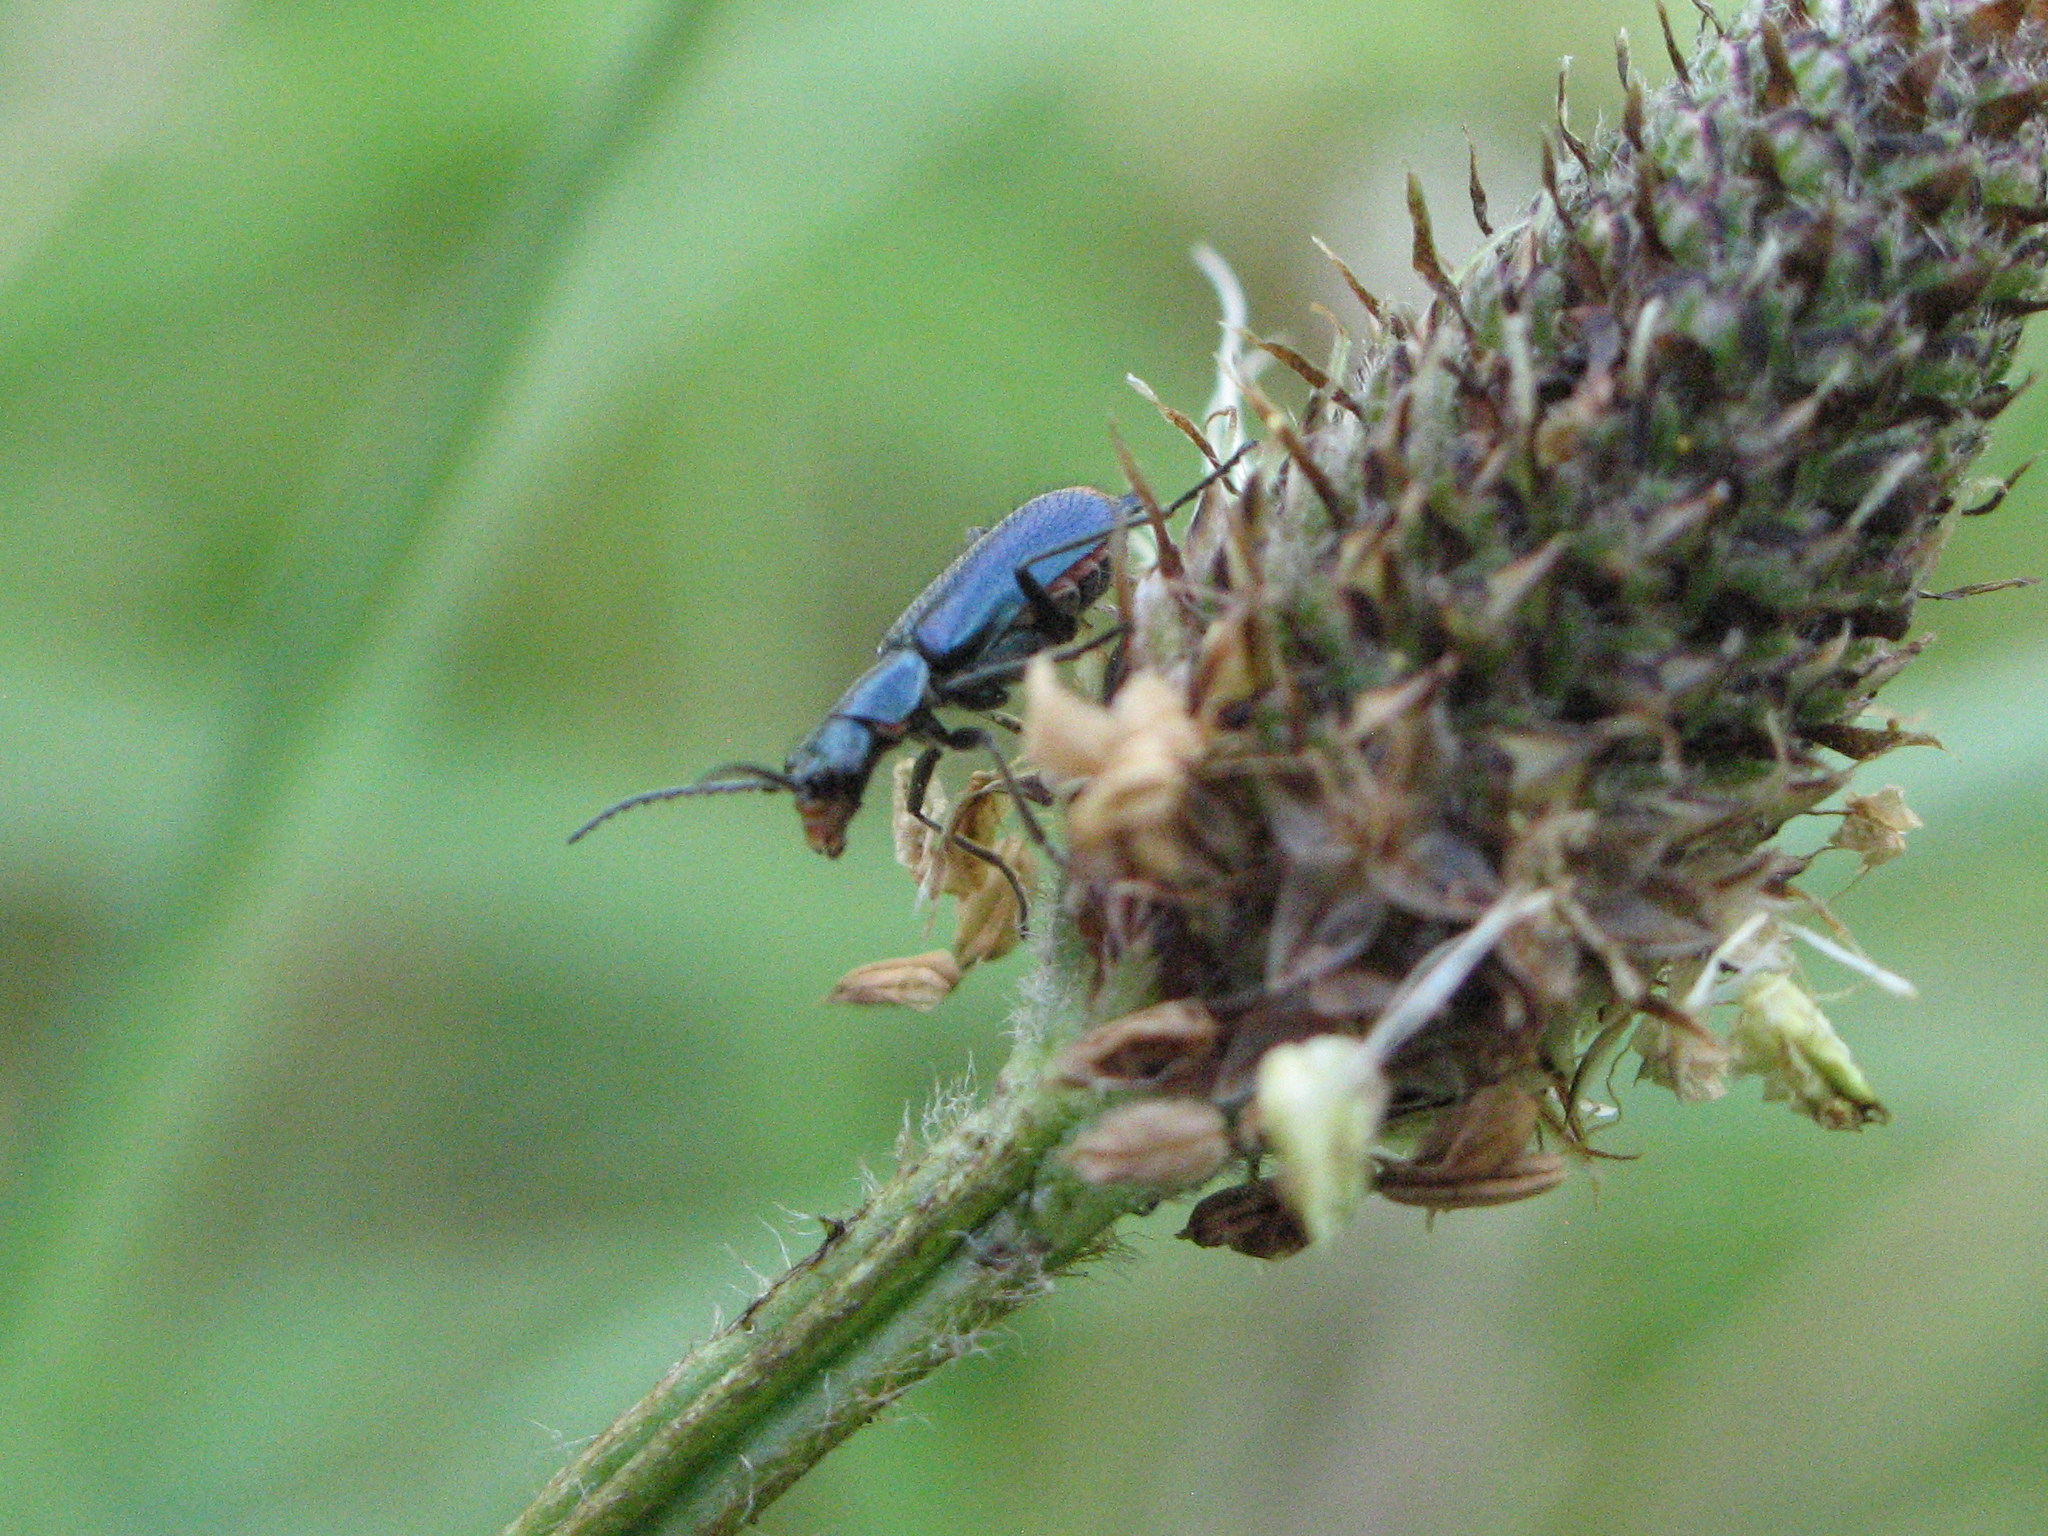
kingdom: Animalia
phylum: Arthropoda
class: Insecta
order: Coleoptera
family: Melyridae
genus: Malachius
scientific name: Malachius bipustulatus
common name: Malachite beetle
